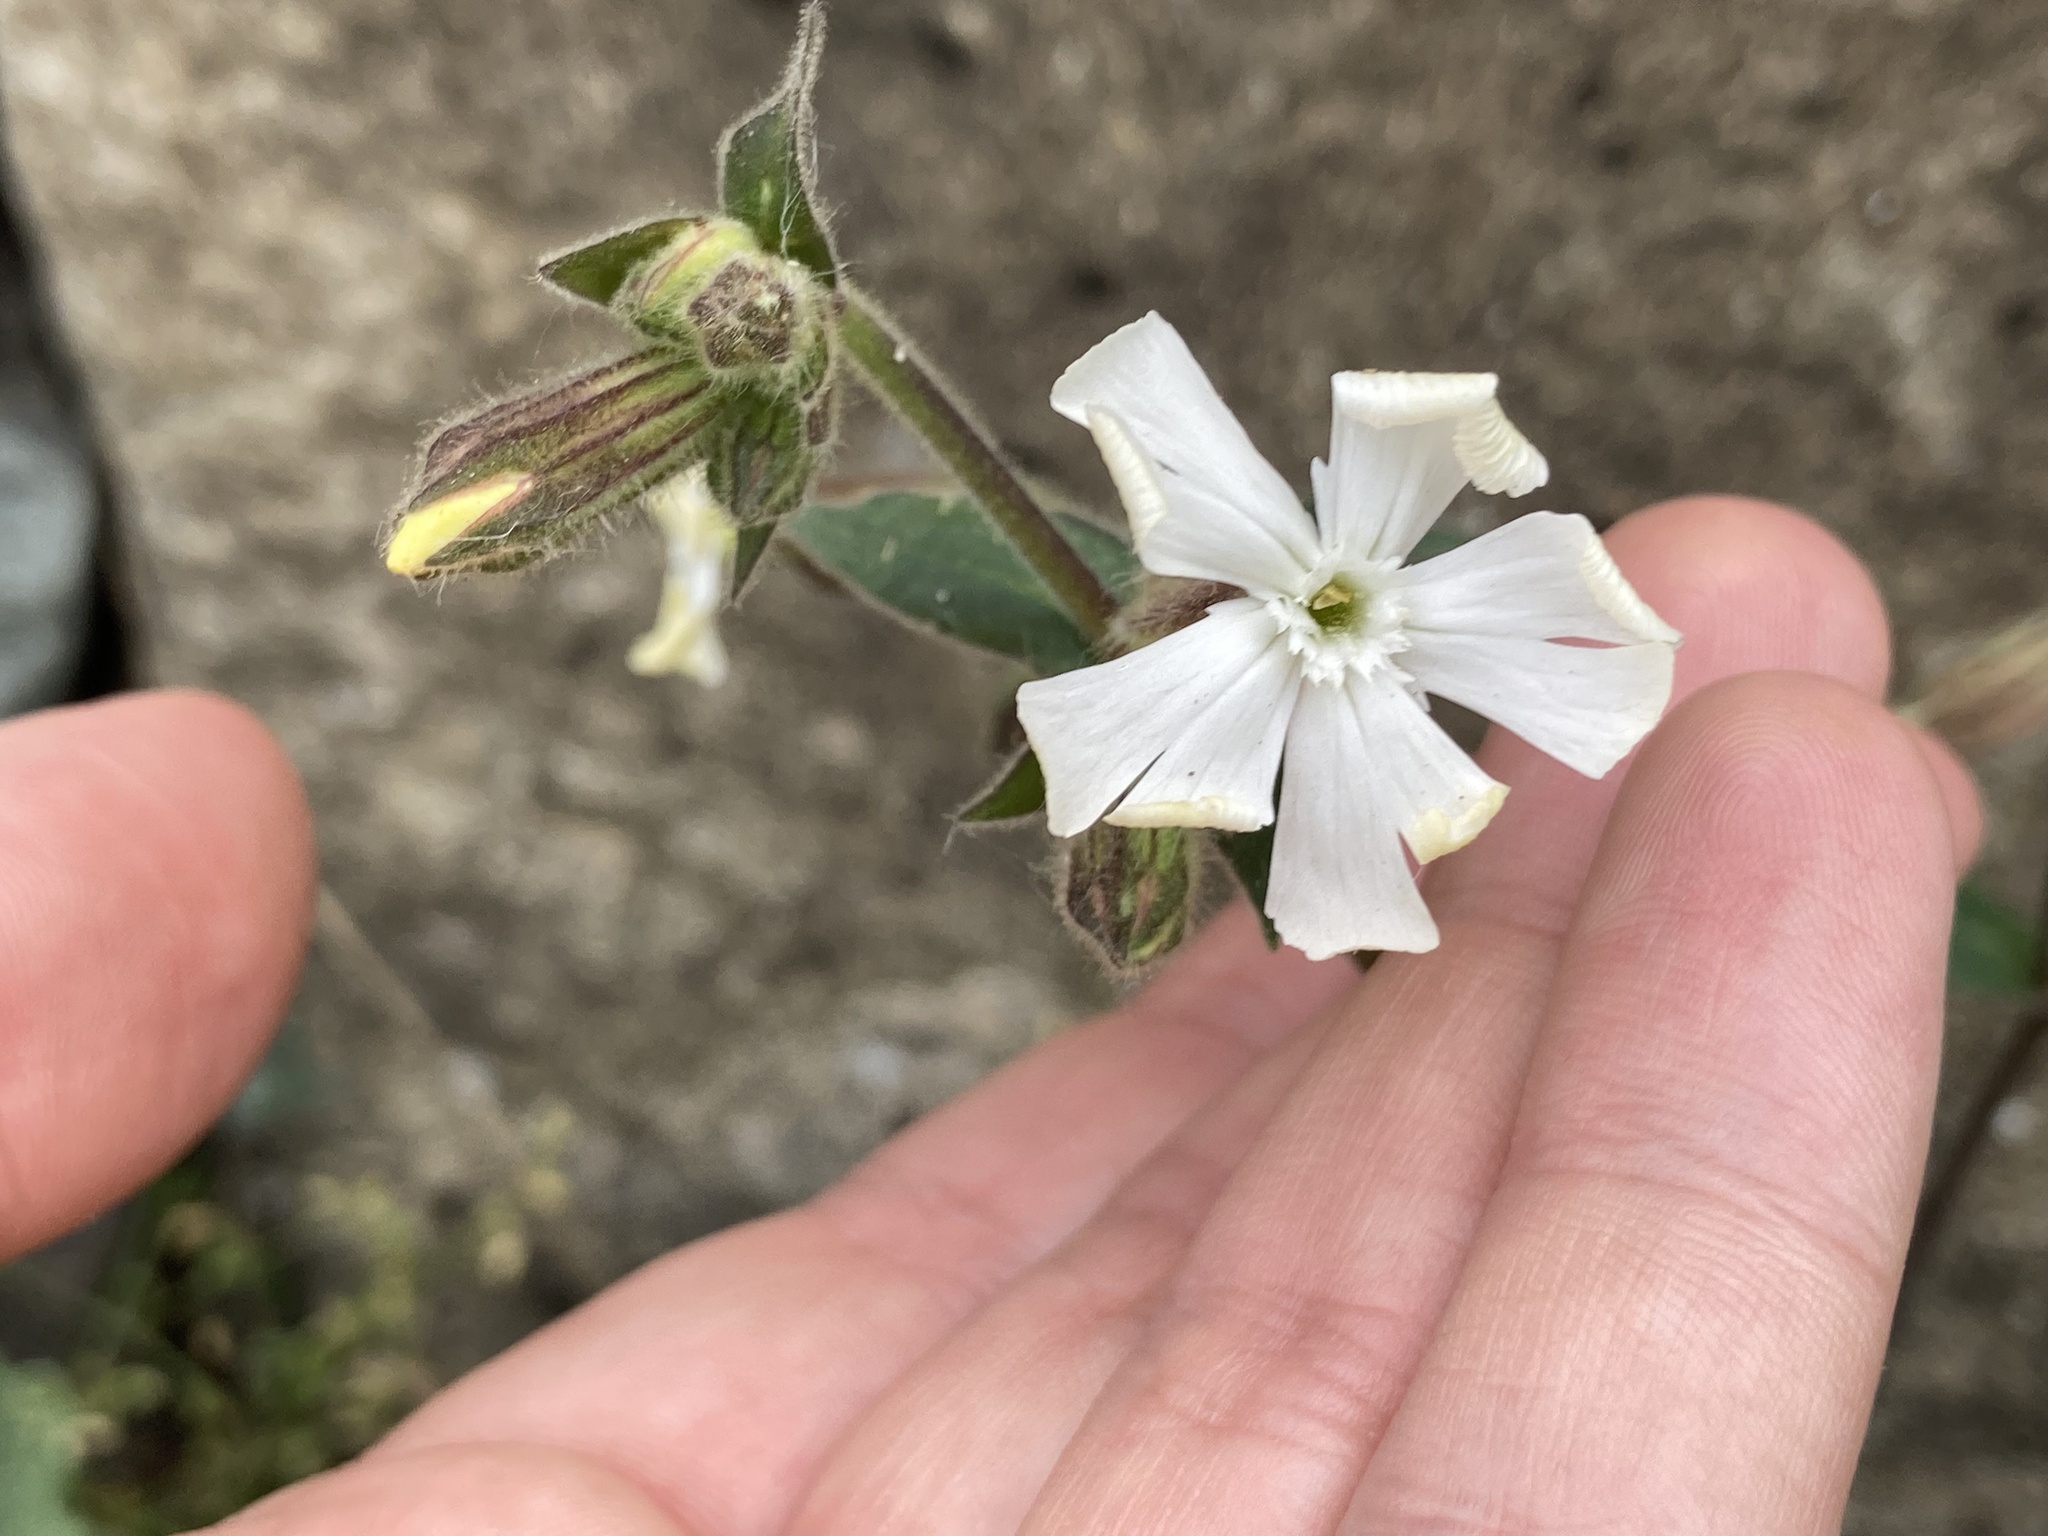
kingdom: Plantae
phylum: Tracheophyta
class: Magnoliopsida
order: Caryophyllales
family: Caryophyllaceae
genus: Silene
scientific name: Silene latifolia
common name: White campion
